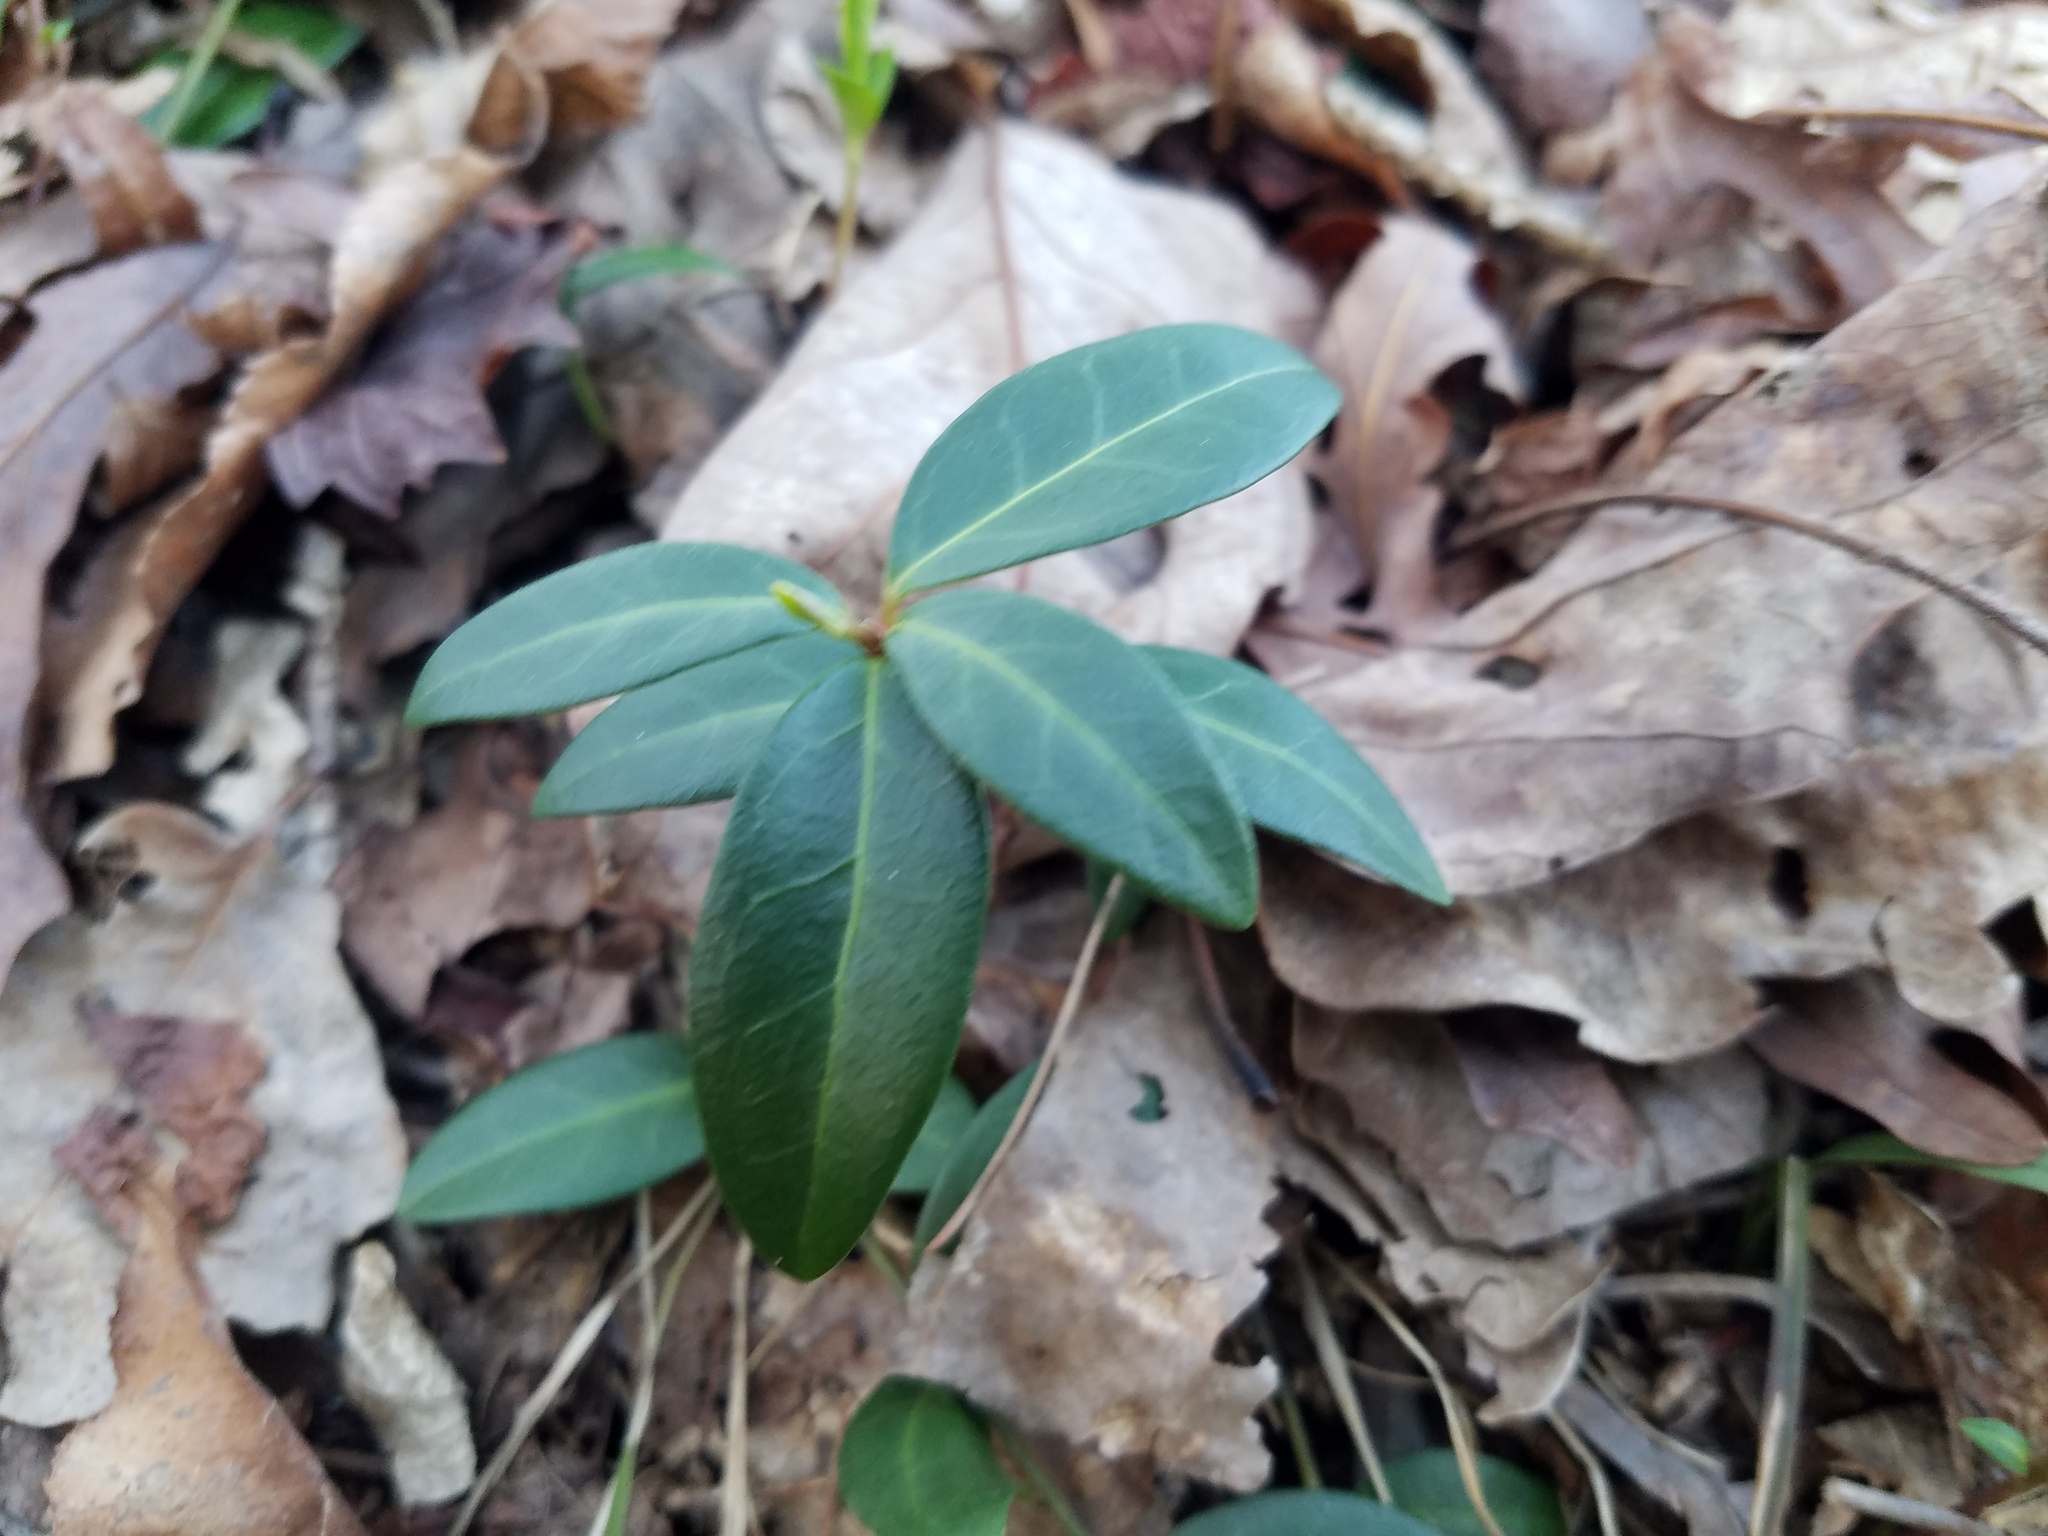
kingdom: Plantae
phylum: Tracheophyta
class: Magnoliopsida
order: Gentianales
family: Apocynaceae
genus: Vinca
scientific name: Vinca minor
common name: Lesser periwinkle
